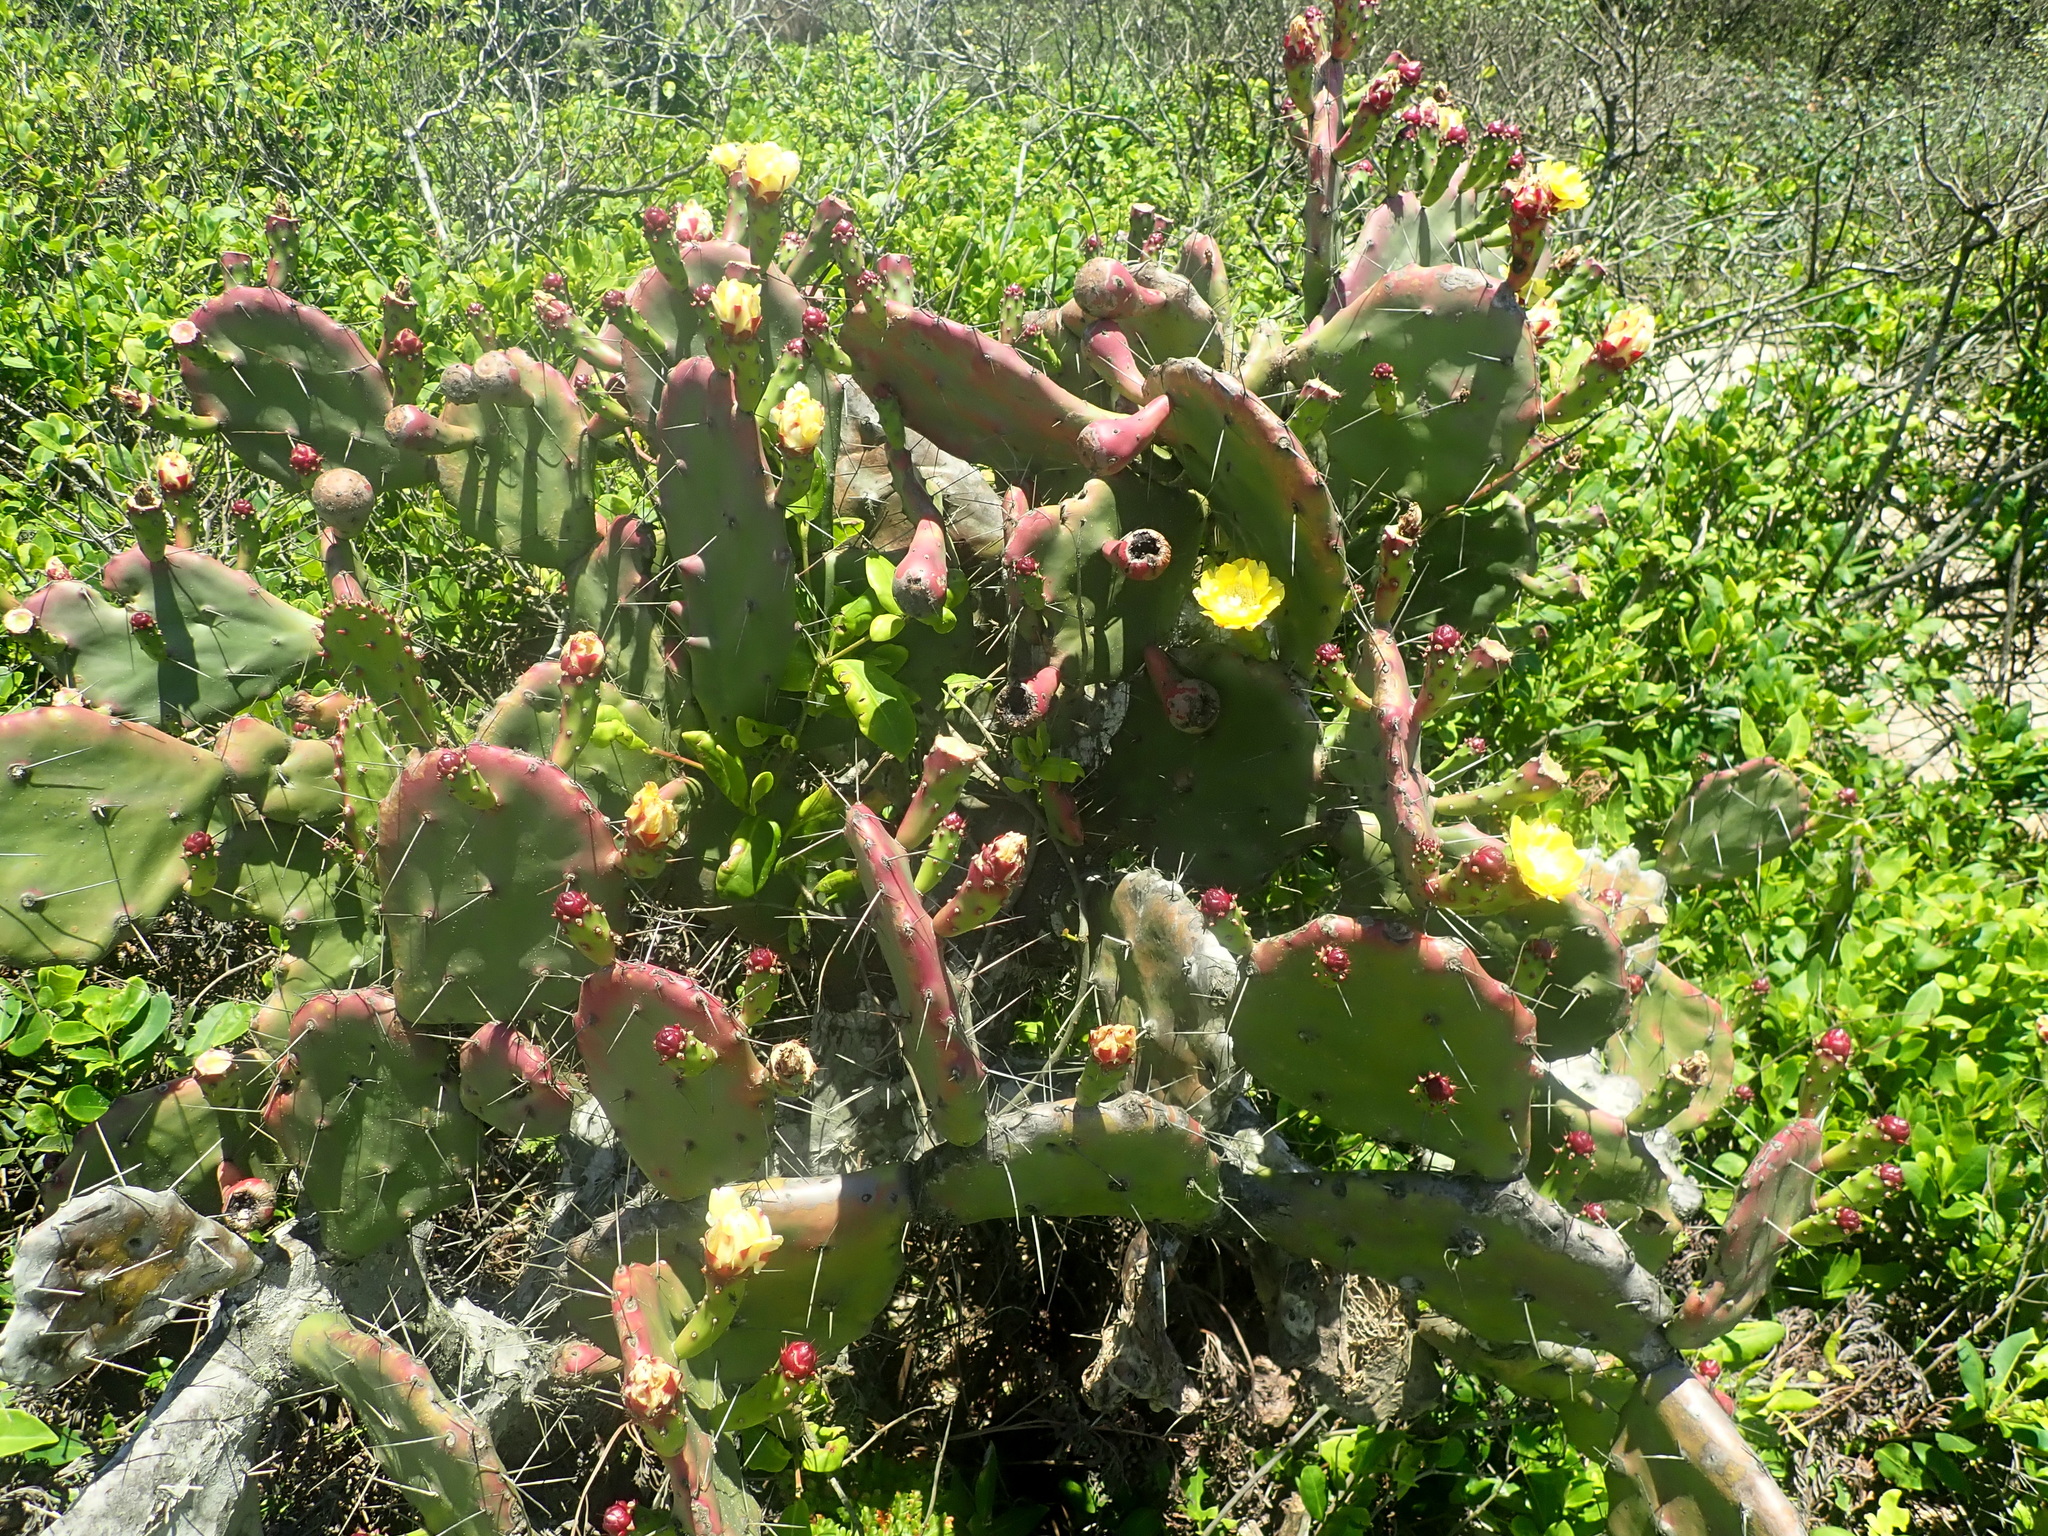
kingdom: Plantae
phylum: Tracheophyta
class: Magnoliopsida
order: Caryophyllales
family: Cactaceae
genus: Opuntia
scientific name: Opuntia monacantha
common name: Common pricklypear
